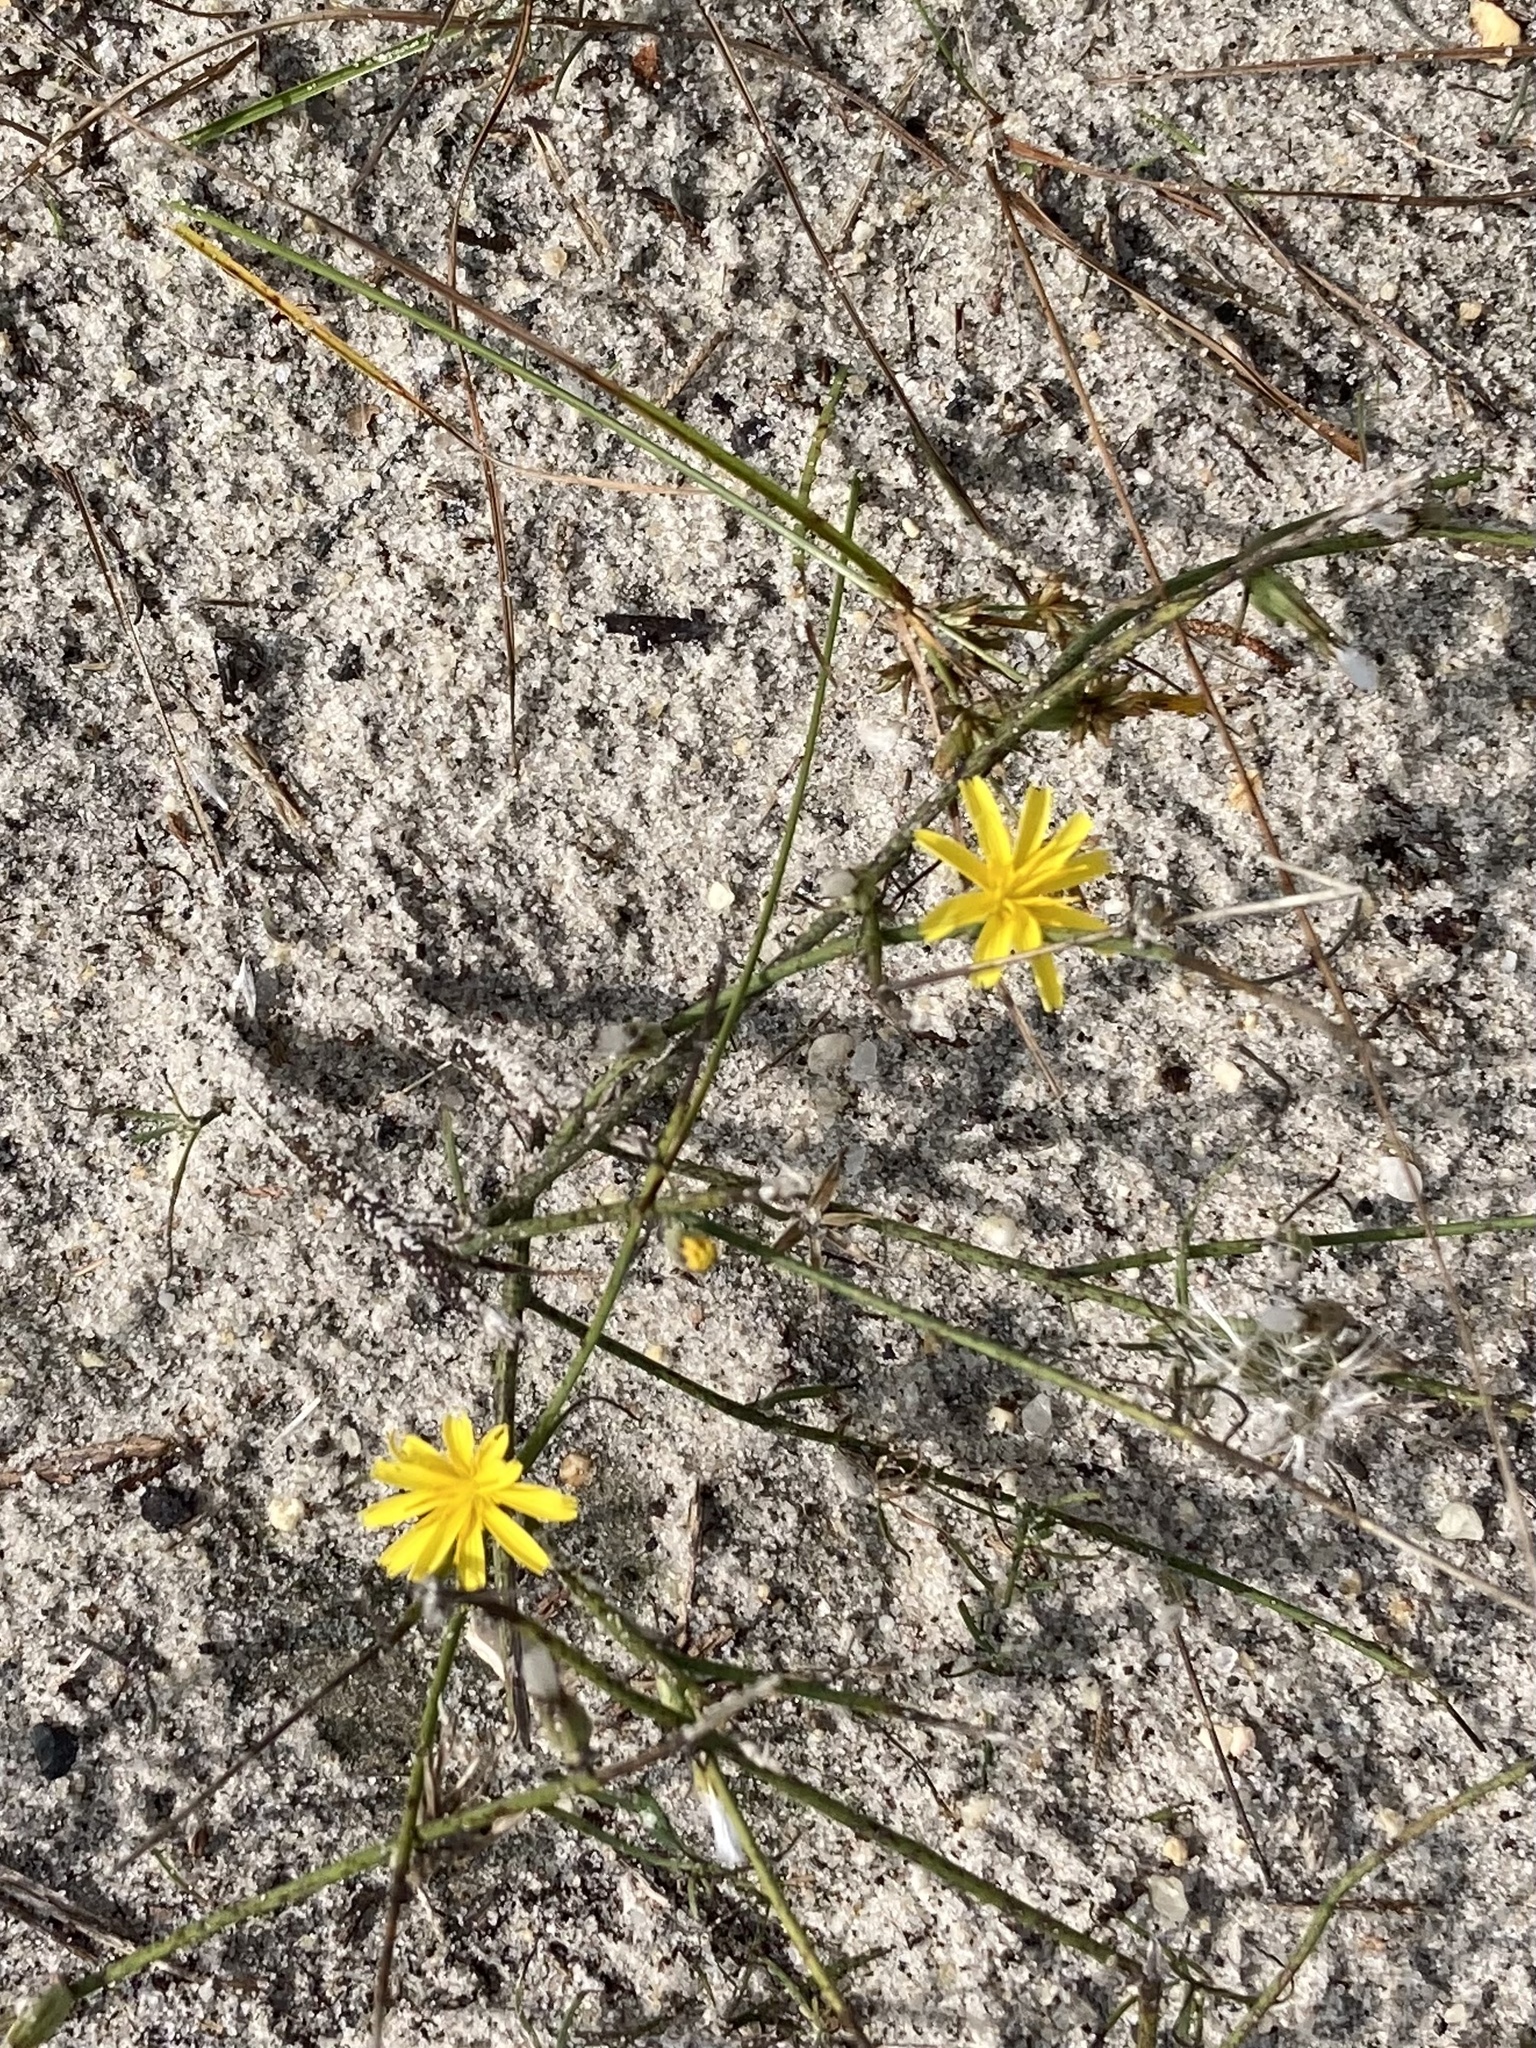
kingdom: Plantae
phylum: Tracheophyta
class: Magnoliopsida
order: Asterales
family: Asteraceae
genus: Chondrilla
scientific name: Chondrilla juncea
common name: Skeleton weed
